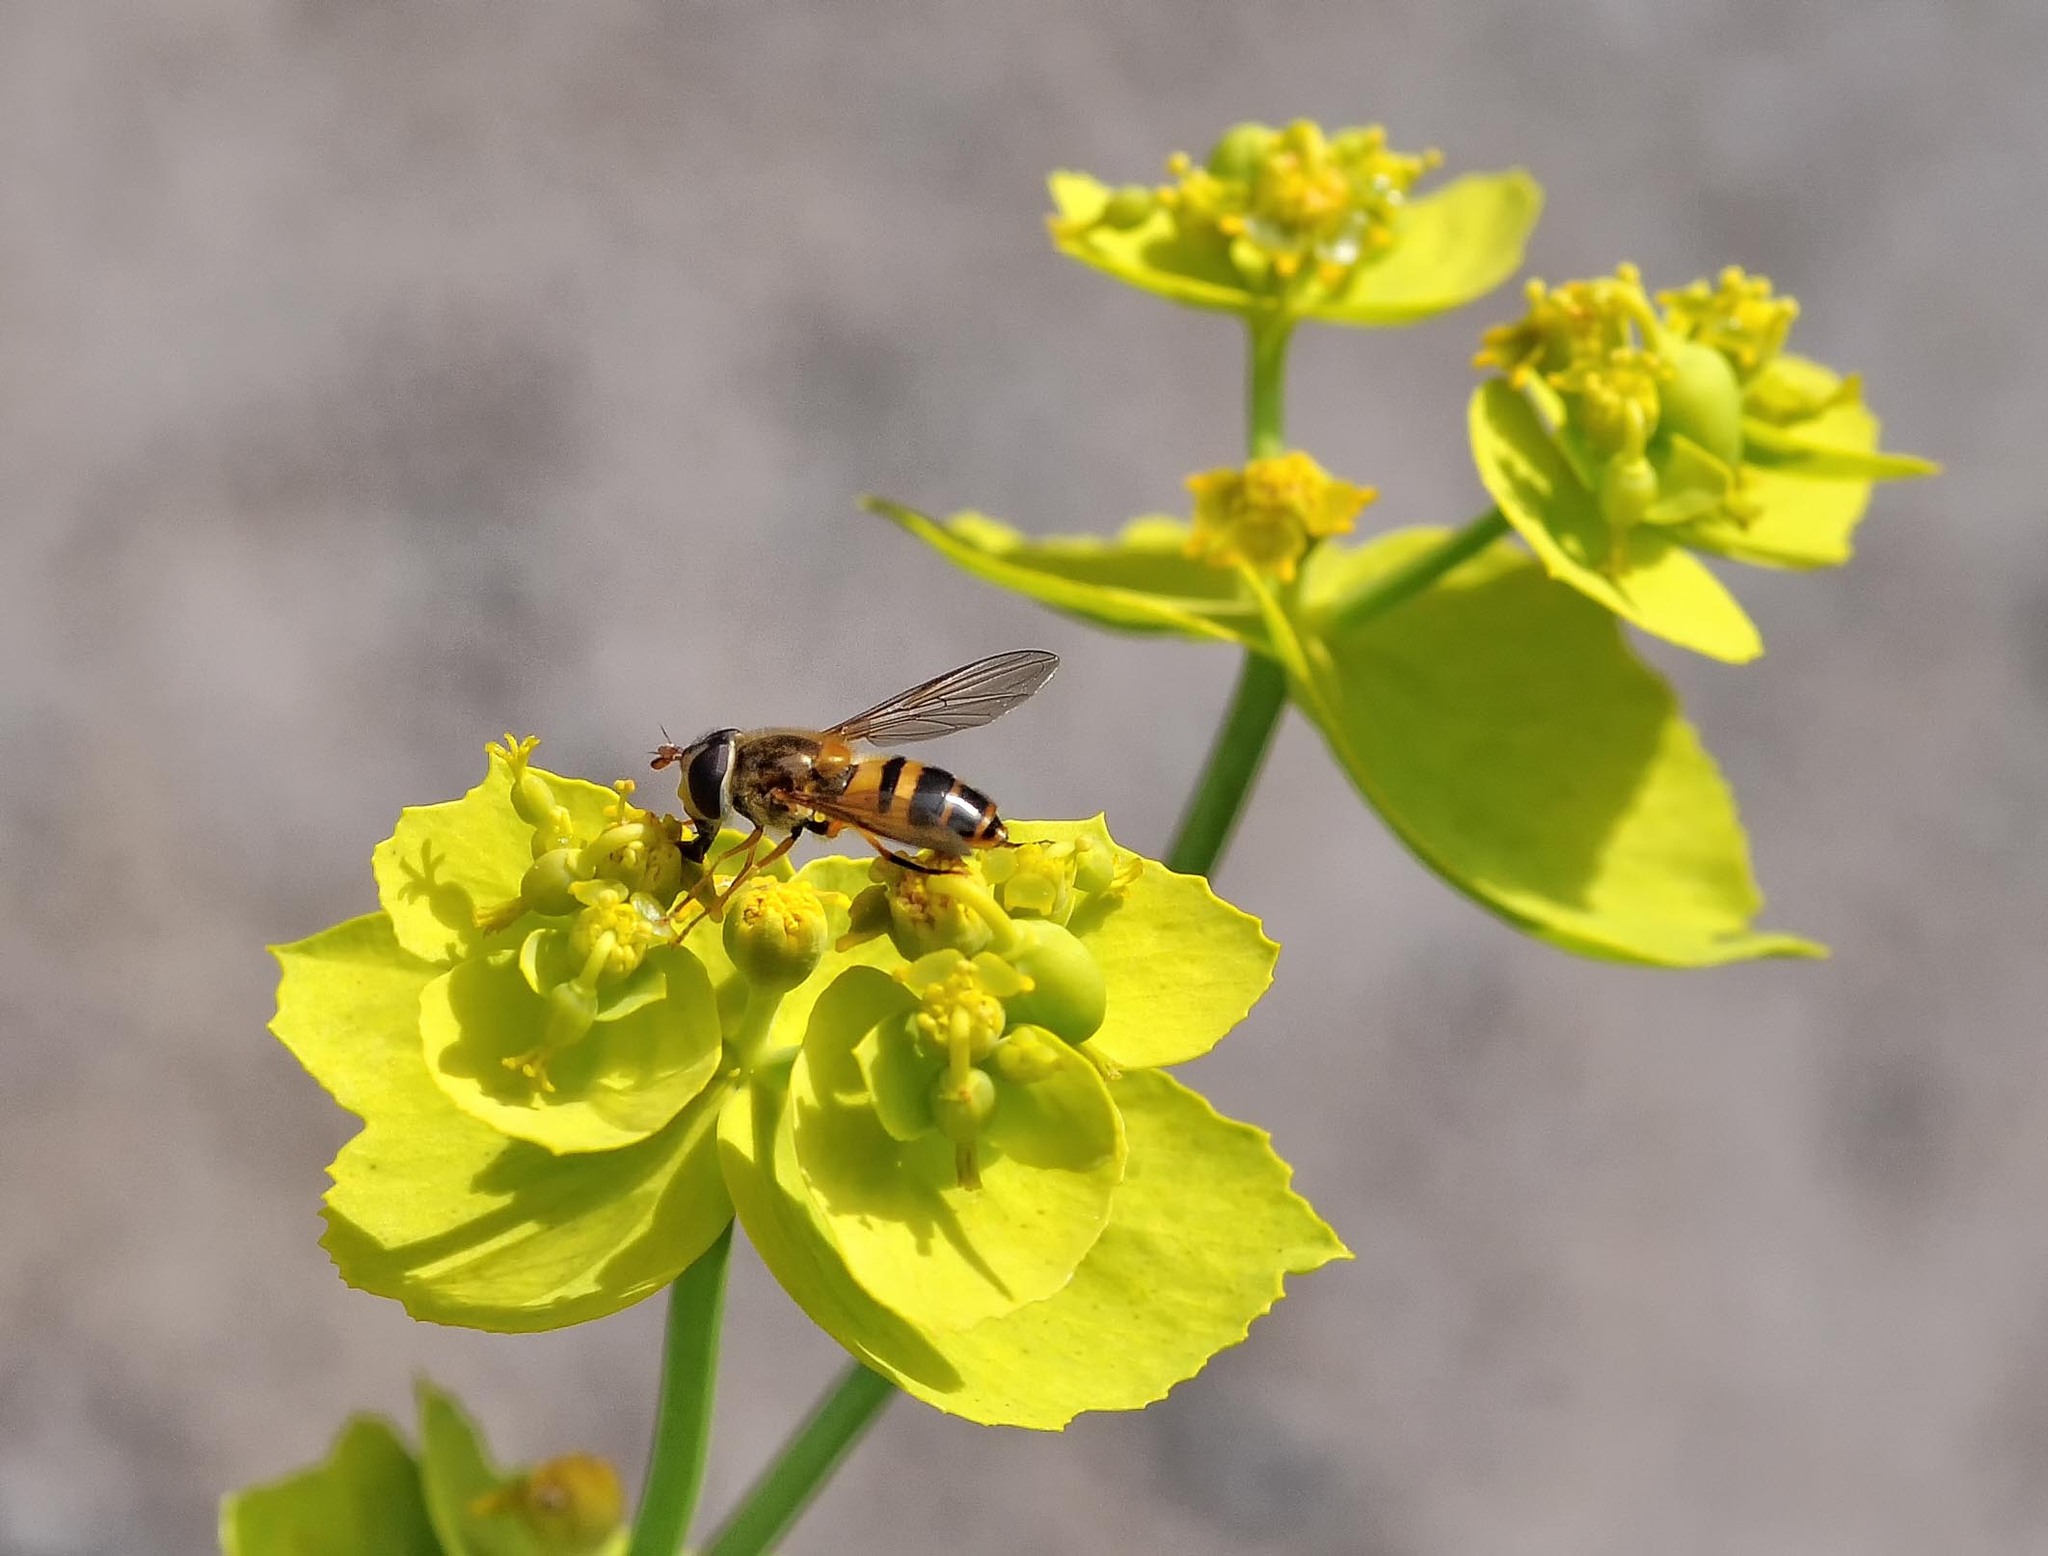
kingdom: Animalia
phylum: Arthropoda
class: Insecta
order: Diptera
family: Syrphidae
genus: Epistrophe
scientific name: Epistrophe eligans
